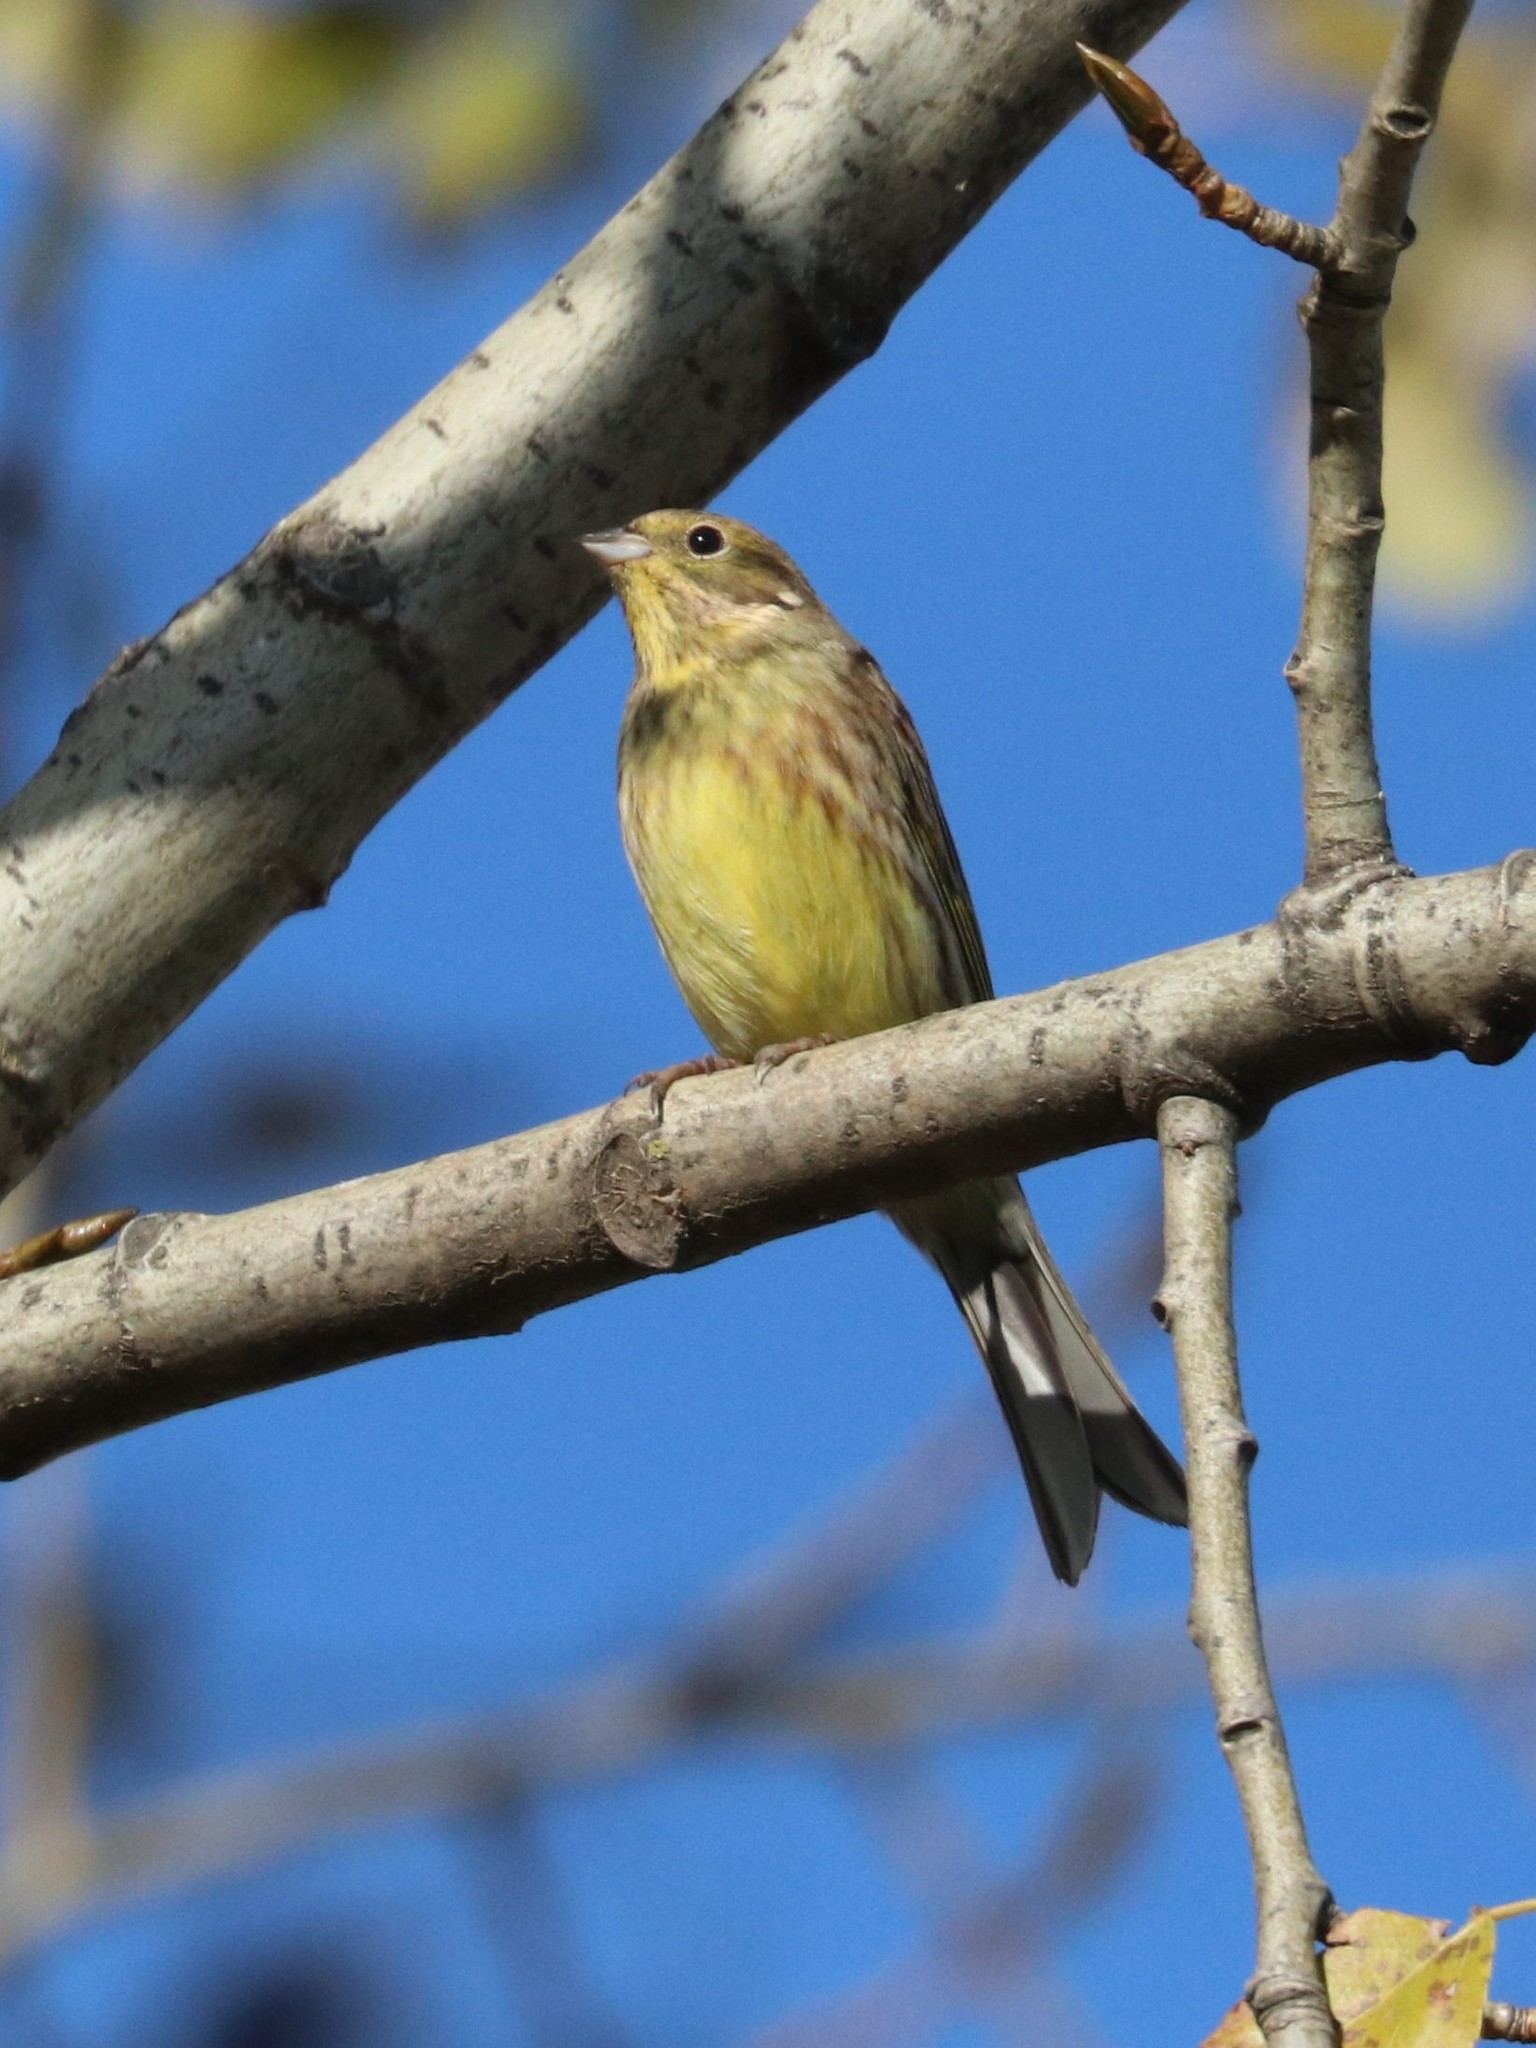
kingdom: Animalia
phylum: Chordata
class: Aves
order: Passeriformes
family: Emberizidae
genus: Emberiza
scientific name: Emberiza citrinella
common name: Yellowhammer
